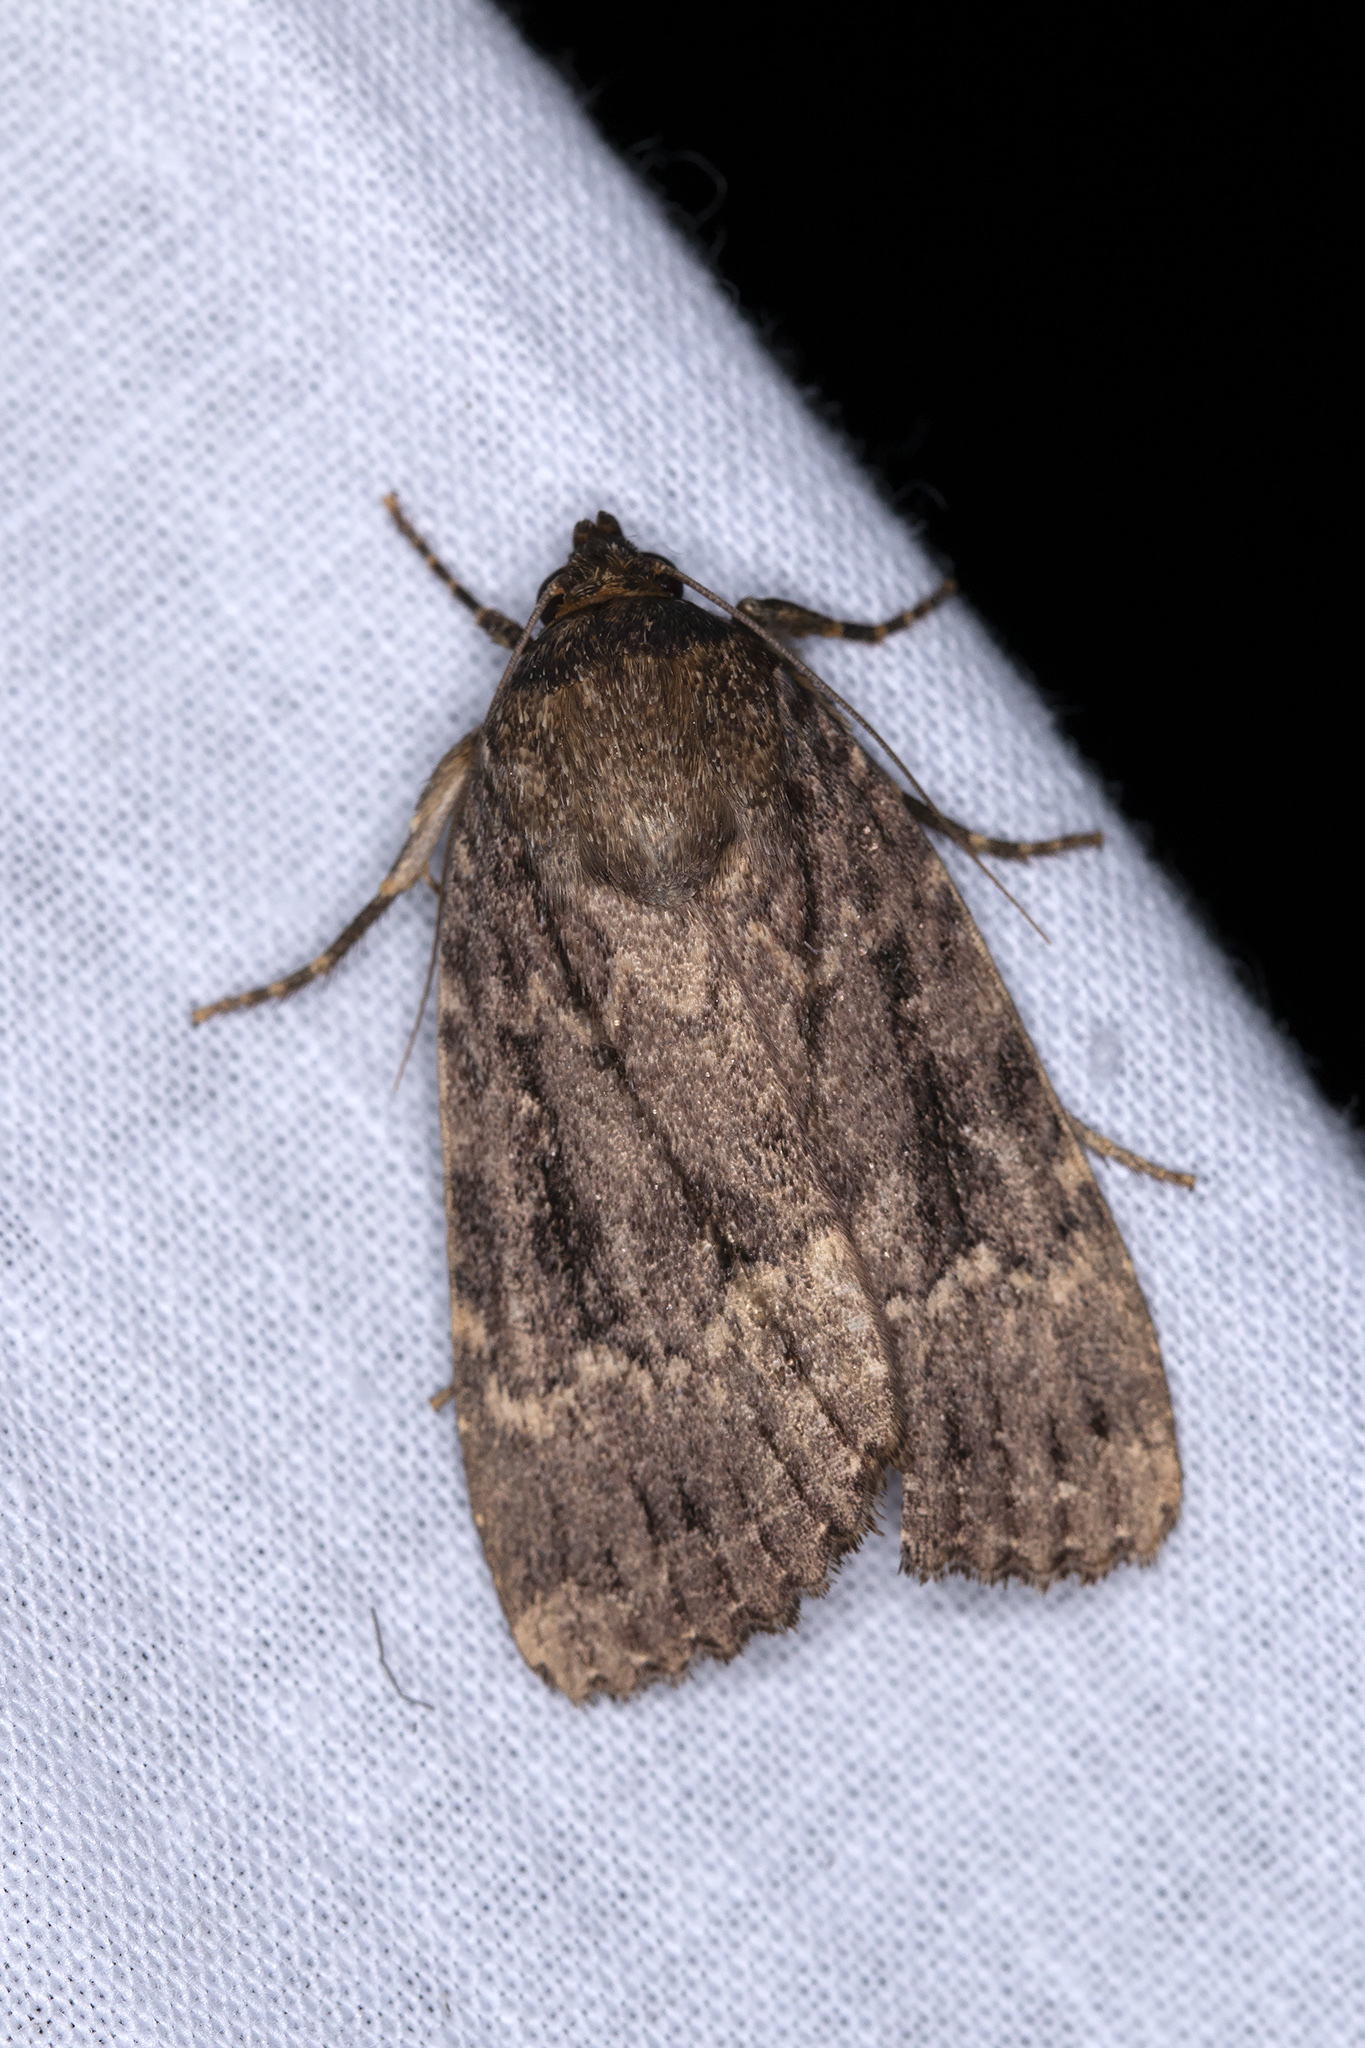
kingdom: Animalia
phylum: Arthropoda
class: Insecta
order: Lepidoptera
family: Noctuidae
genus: Amphipyra
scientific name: Amphipyra pyramidea
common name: Copper underwing
